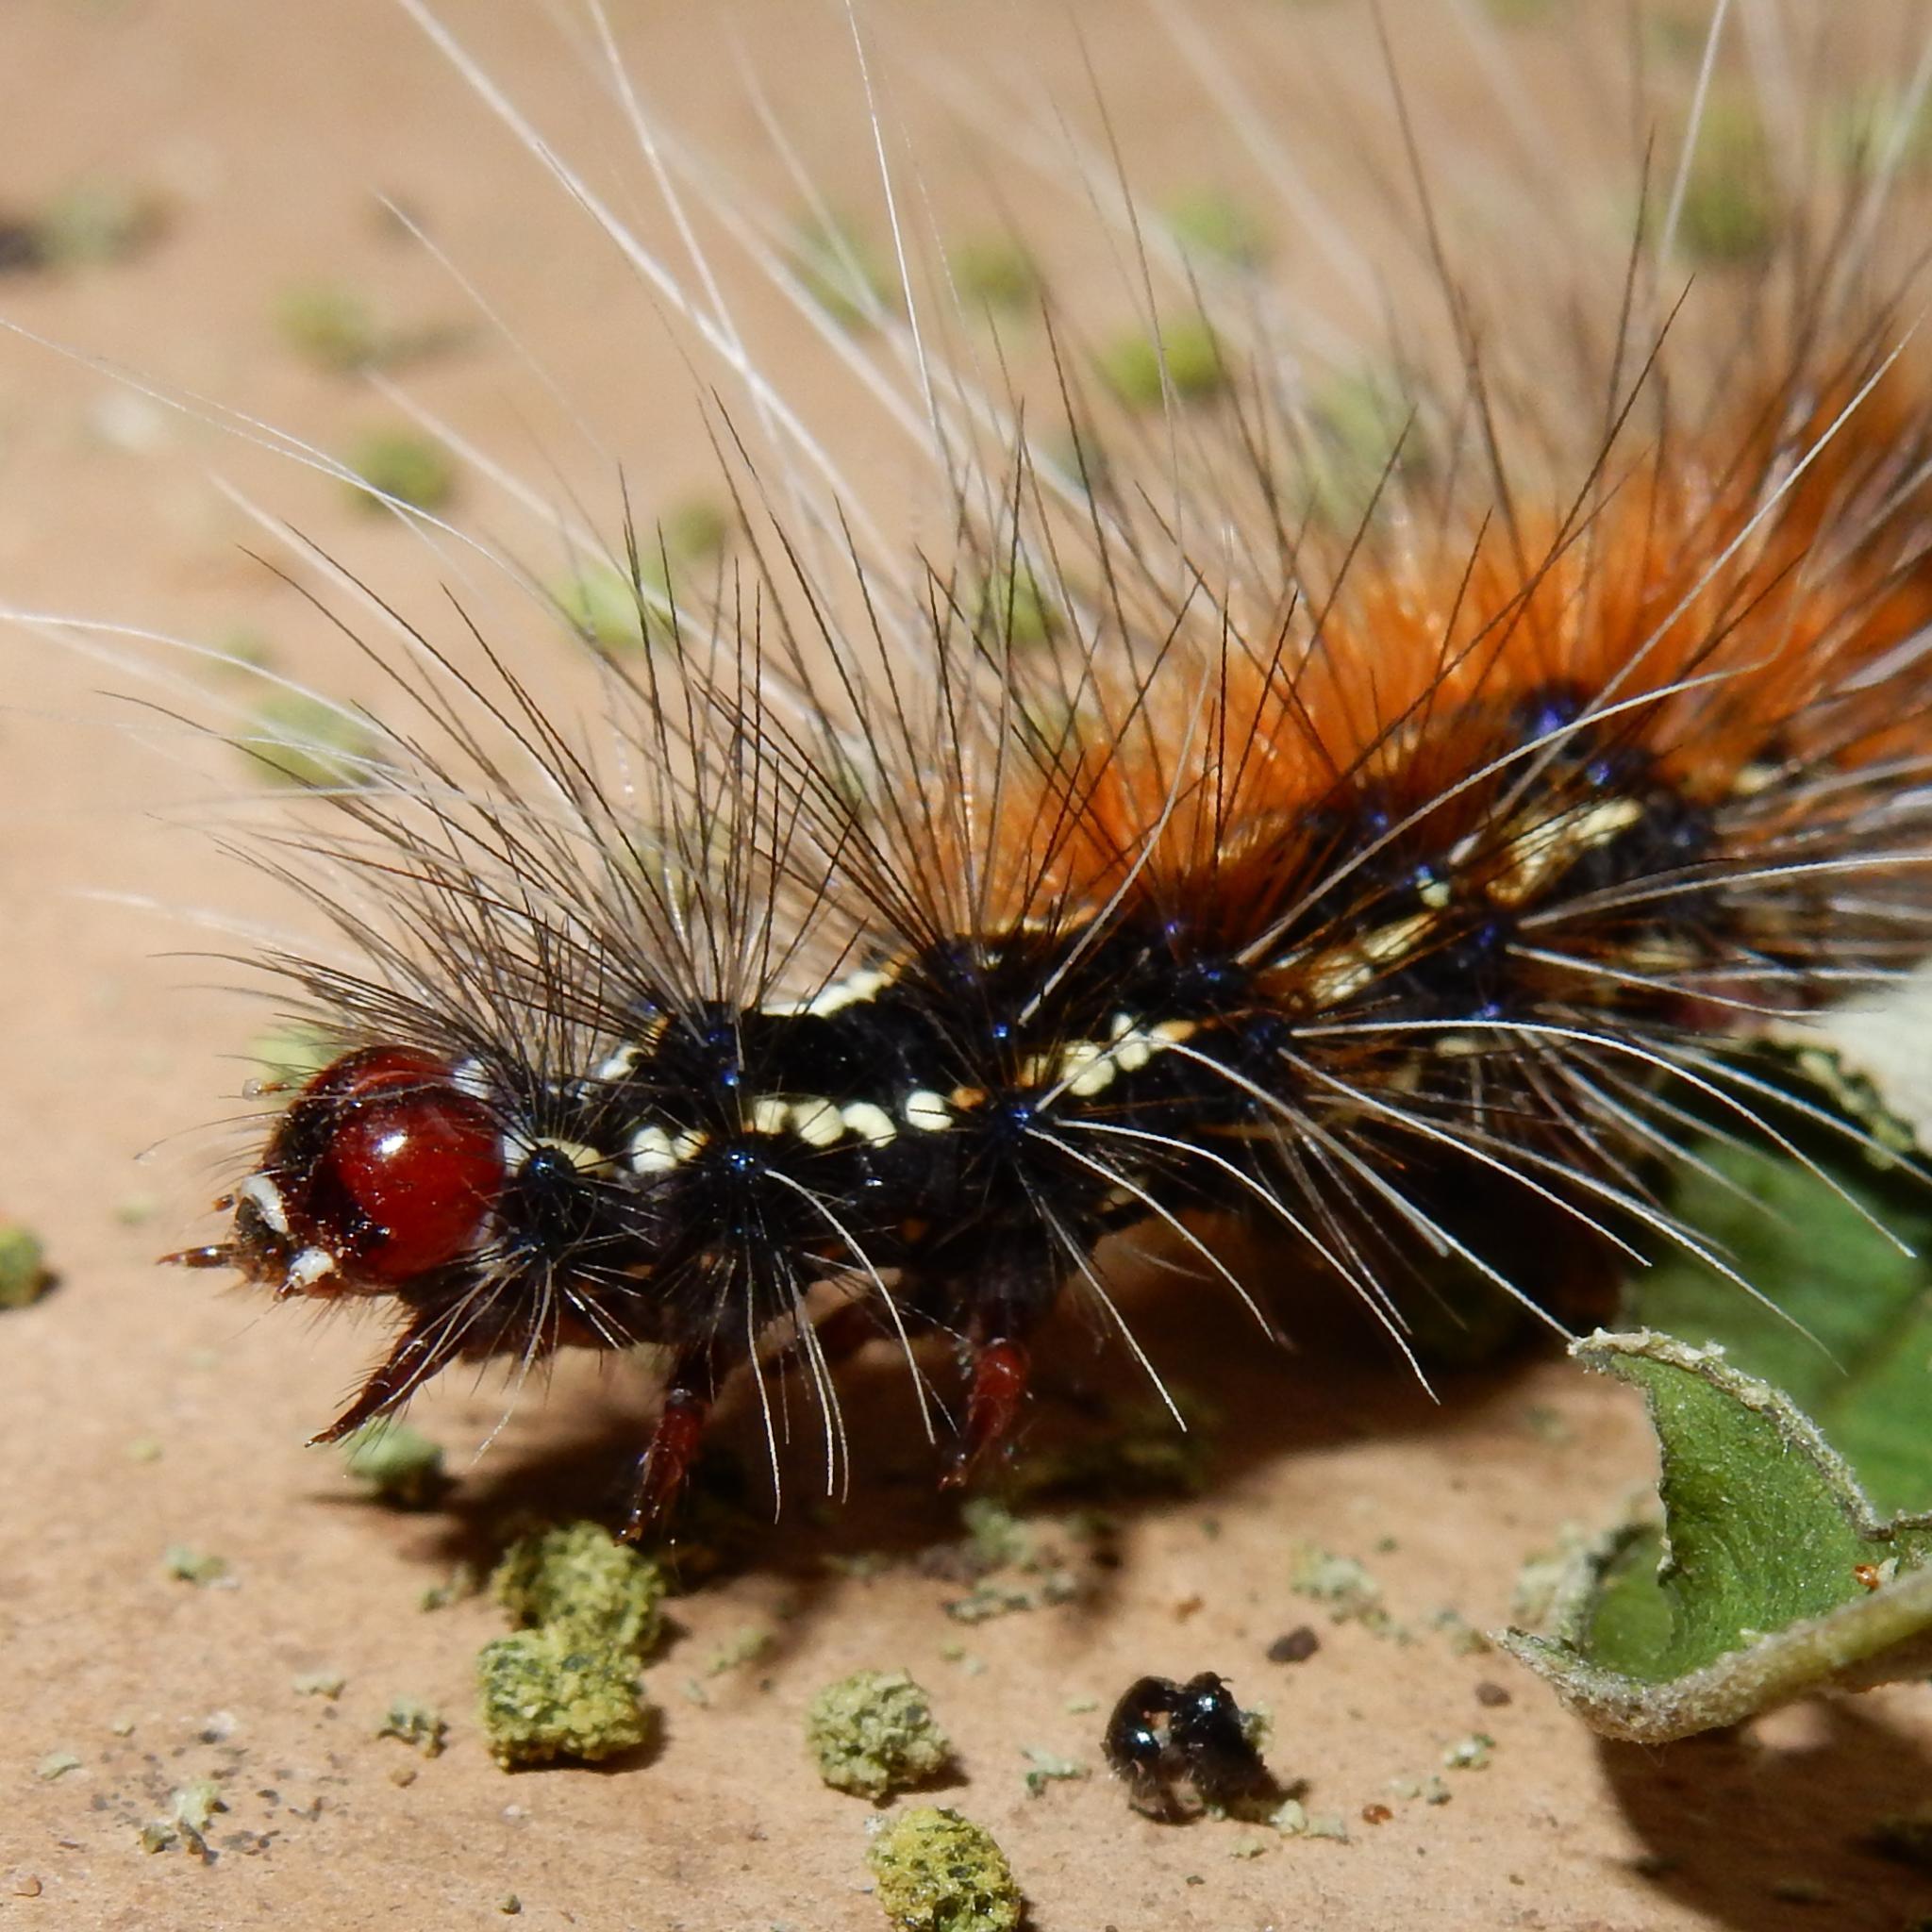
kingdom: Animalia
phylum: Arthropoda
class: Insecta
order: Lepidoptera
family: Erebidae
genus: Leucaloa
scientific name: Leucaloa eugraphica
